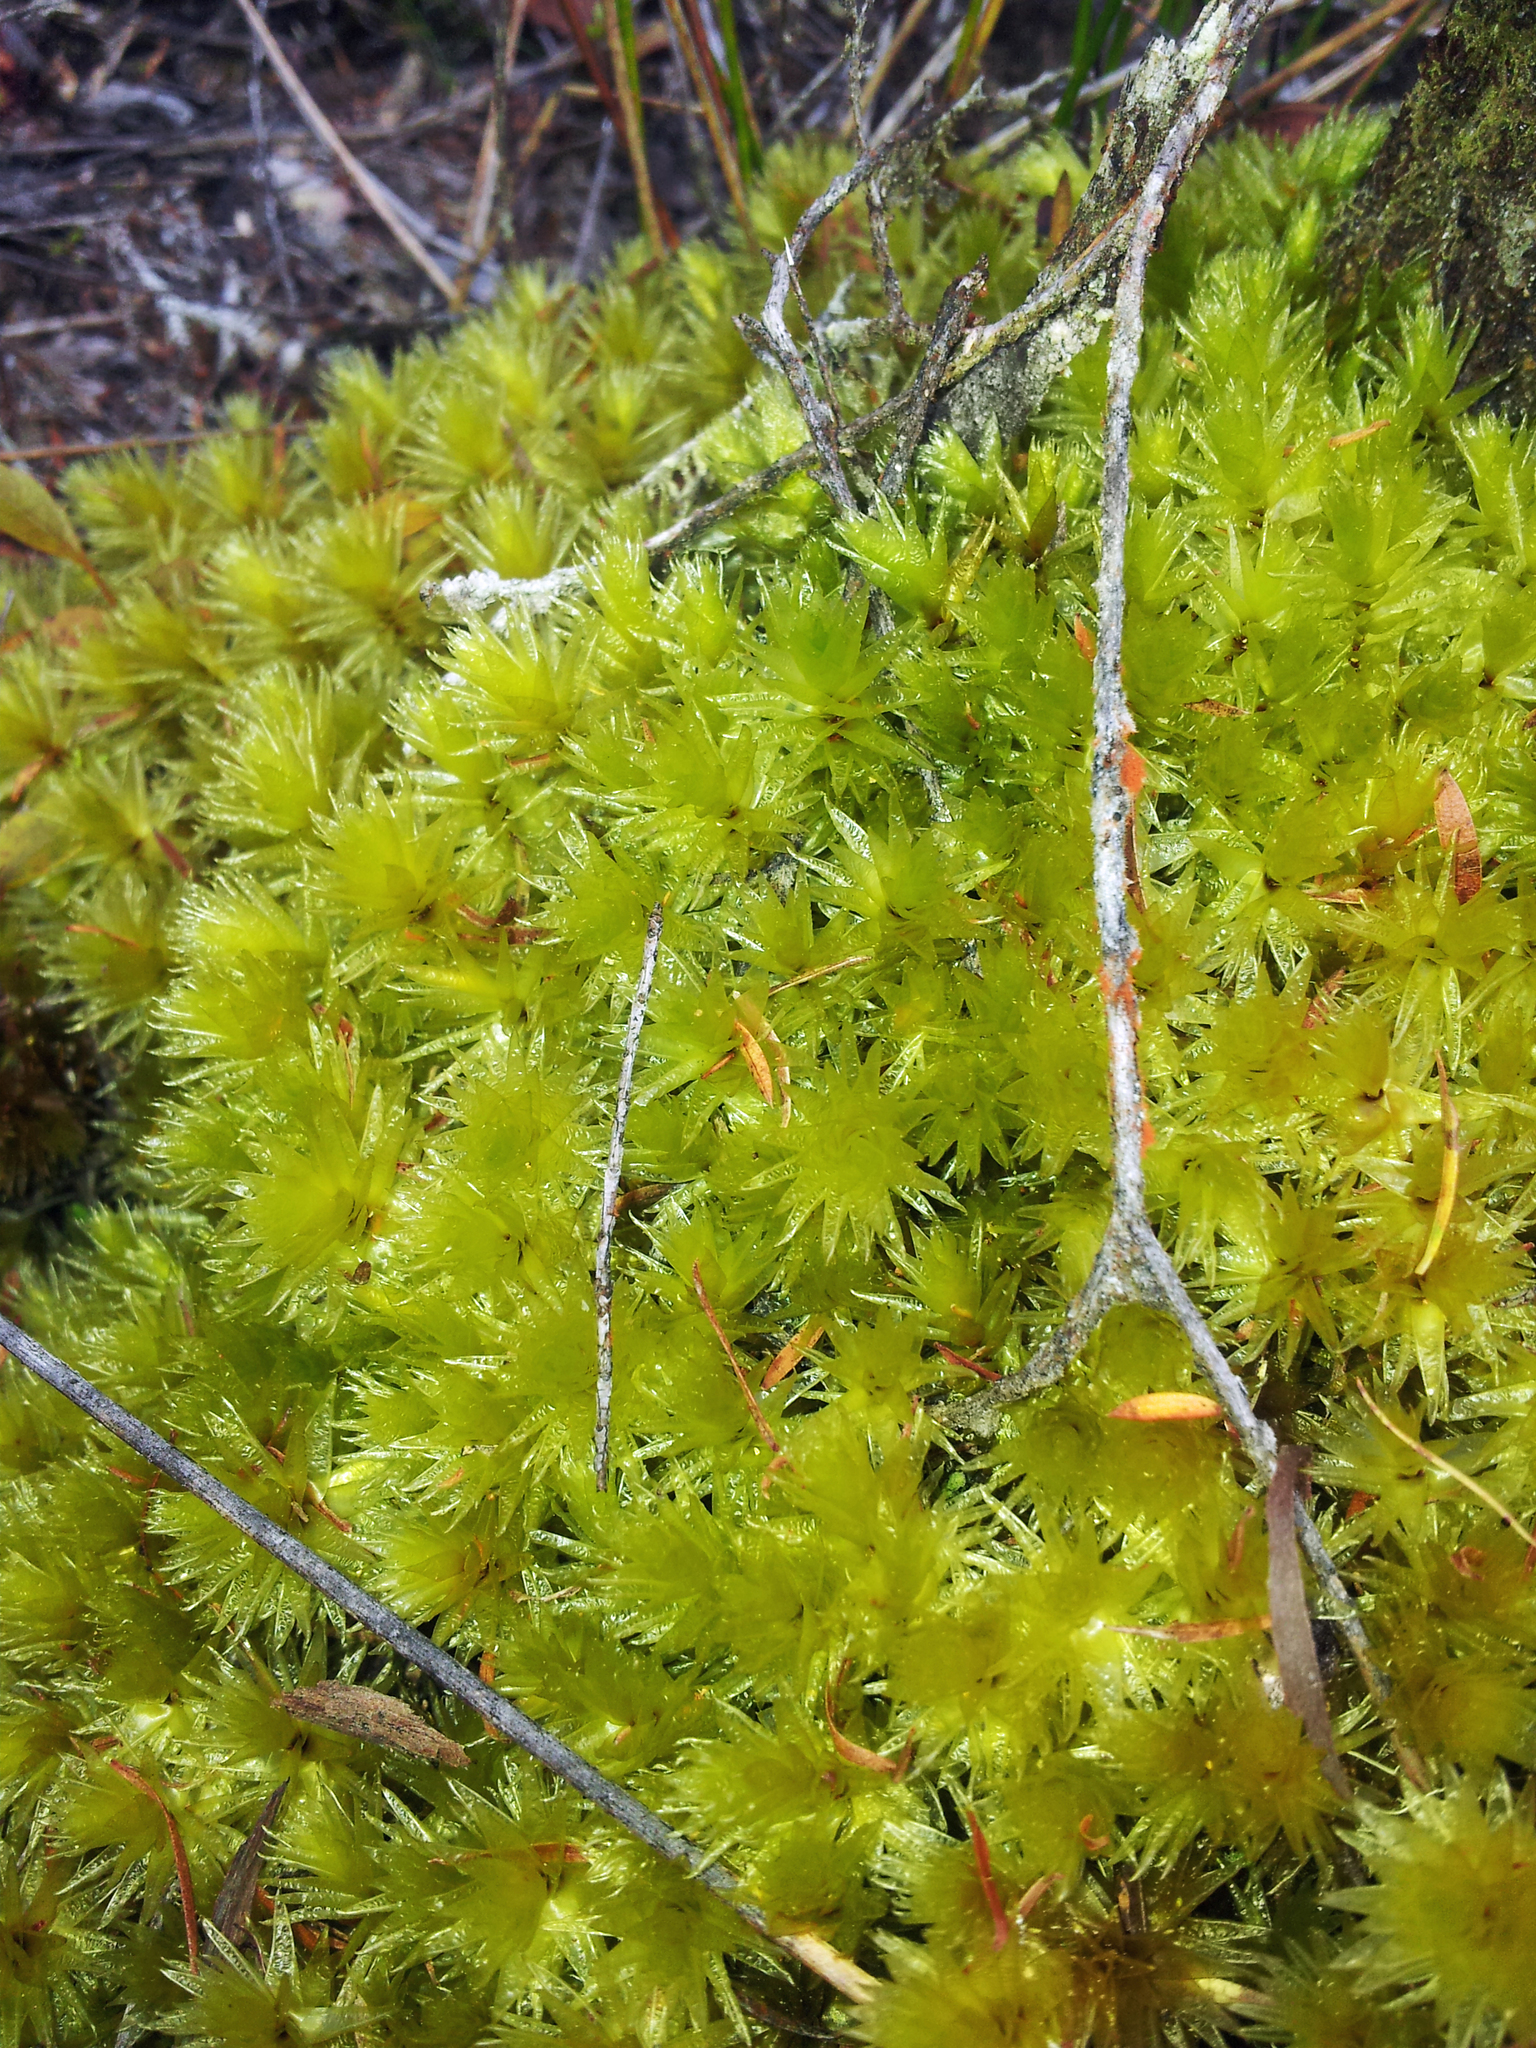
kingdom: Plantae
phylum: Bryophyta
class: Bryopsida
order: Bryales
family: Pulchrinodaceae
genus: Pulchrinodus
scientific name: Pulchrinodus inflatus
